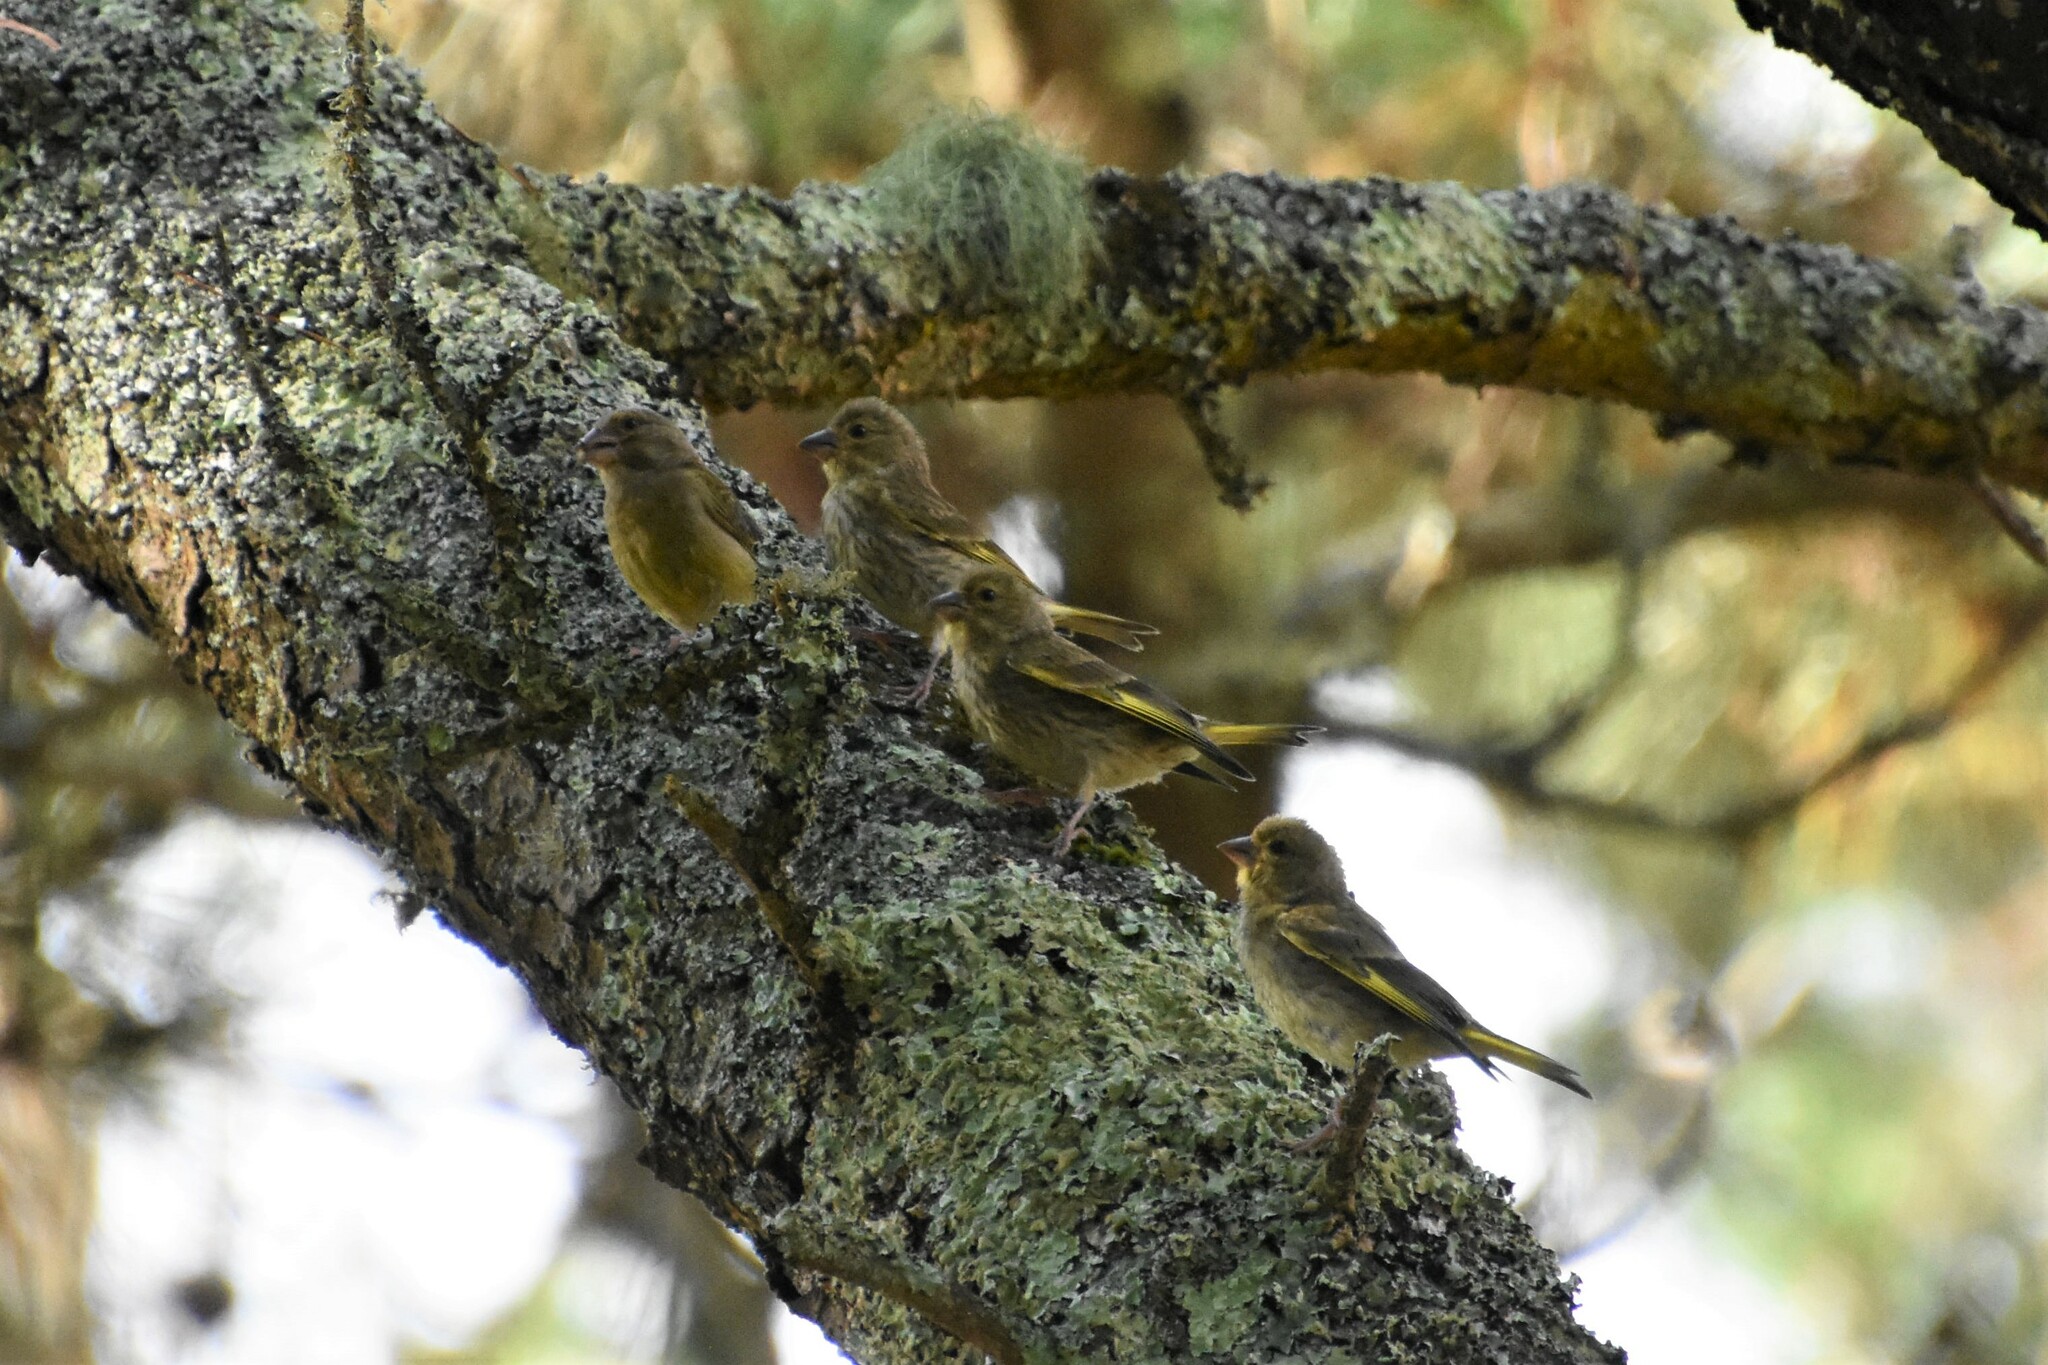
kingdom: Plantae
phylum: Tracheophyta
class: Liliopsida
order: Poales
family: Poaceae
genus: Chloris
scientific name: Chloris chloris
